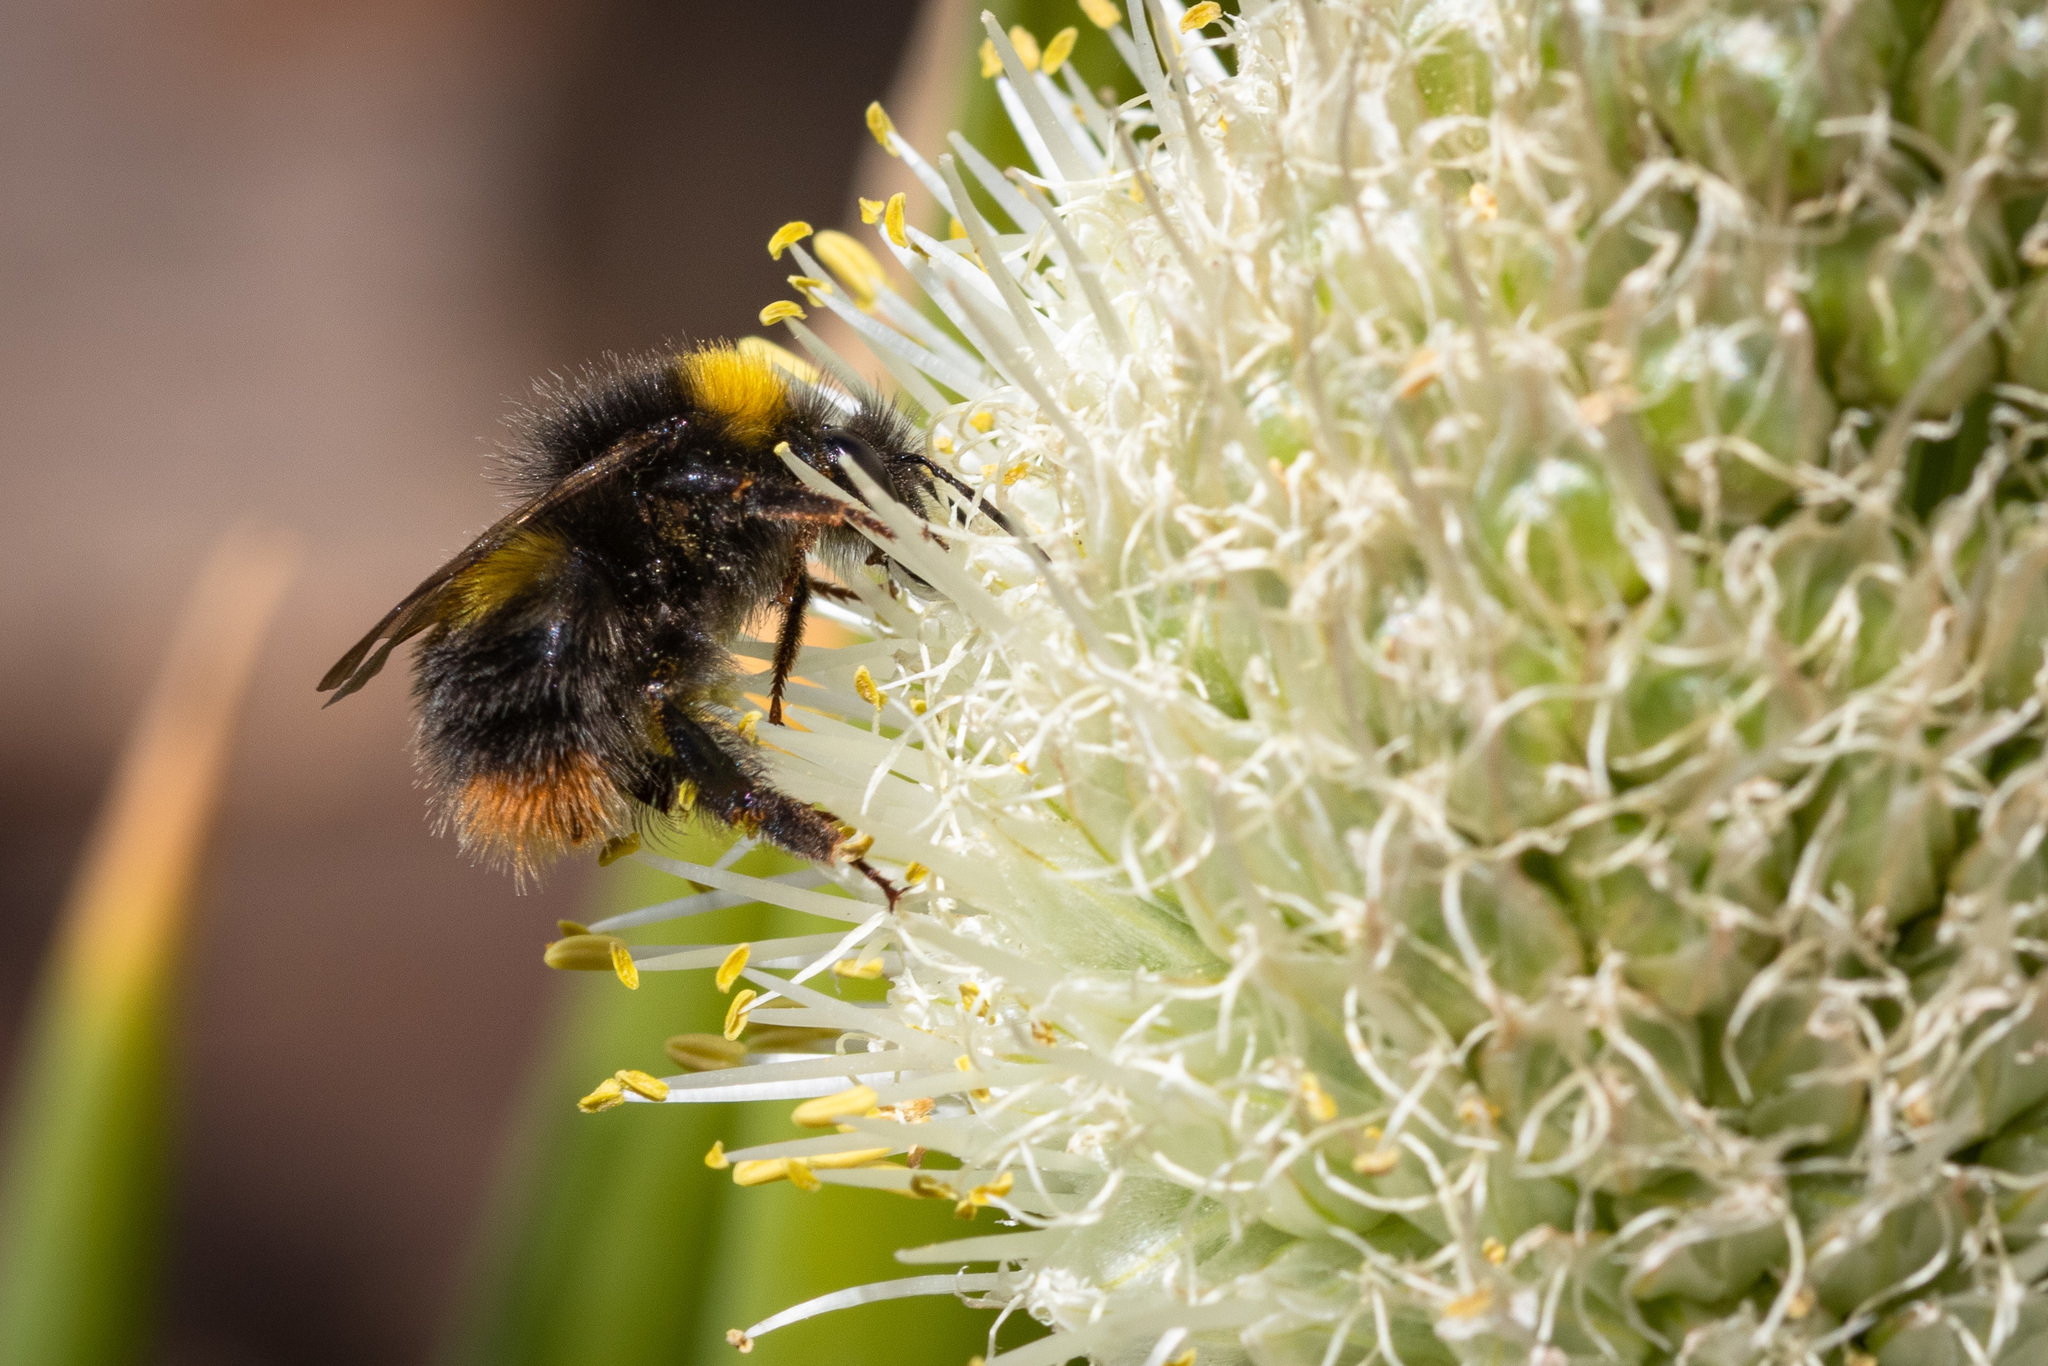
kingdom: Animalia
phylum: Arthropoda
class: Insecta
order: Hymenoptera
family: Apidae
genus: Bombus
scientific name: Bombus pratorum
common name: Early humble-bee
